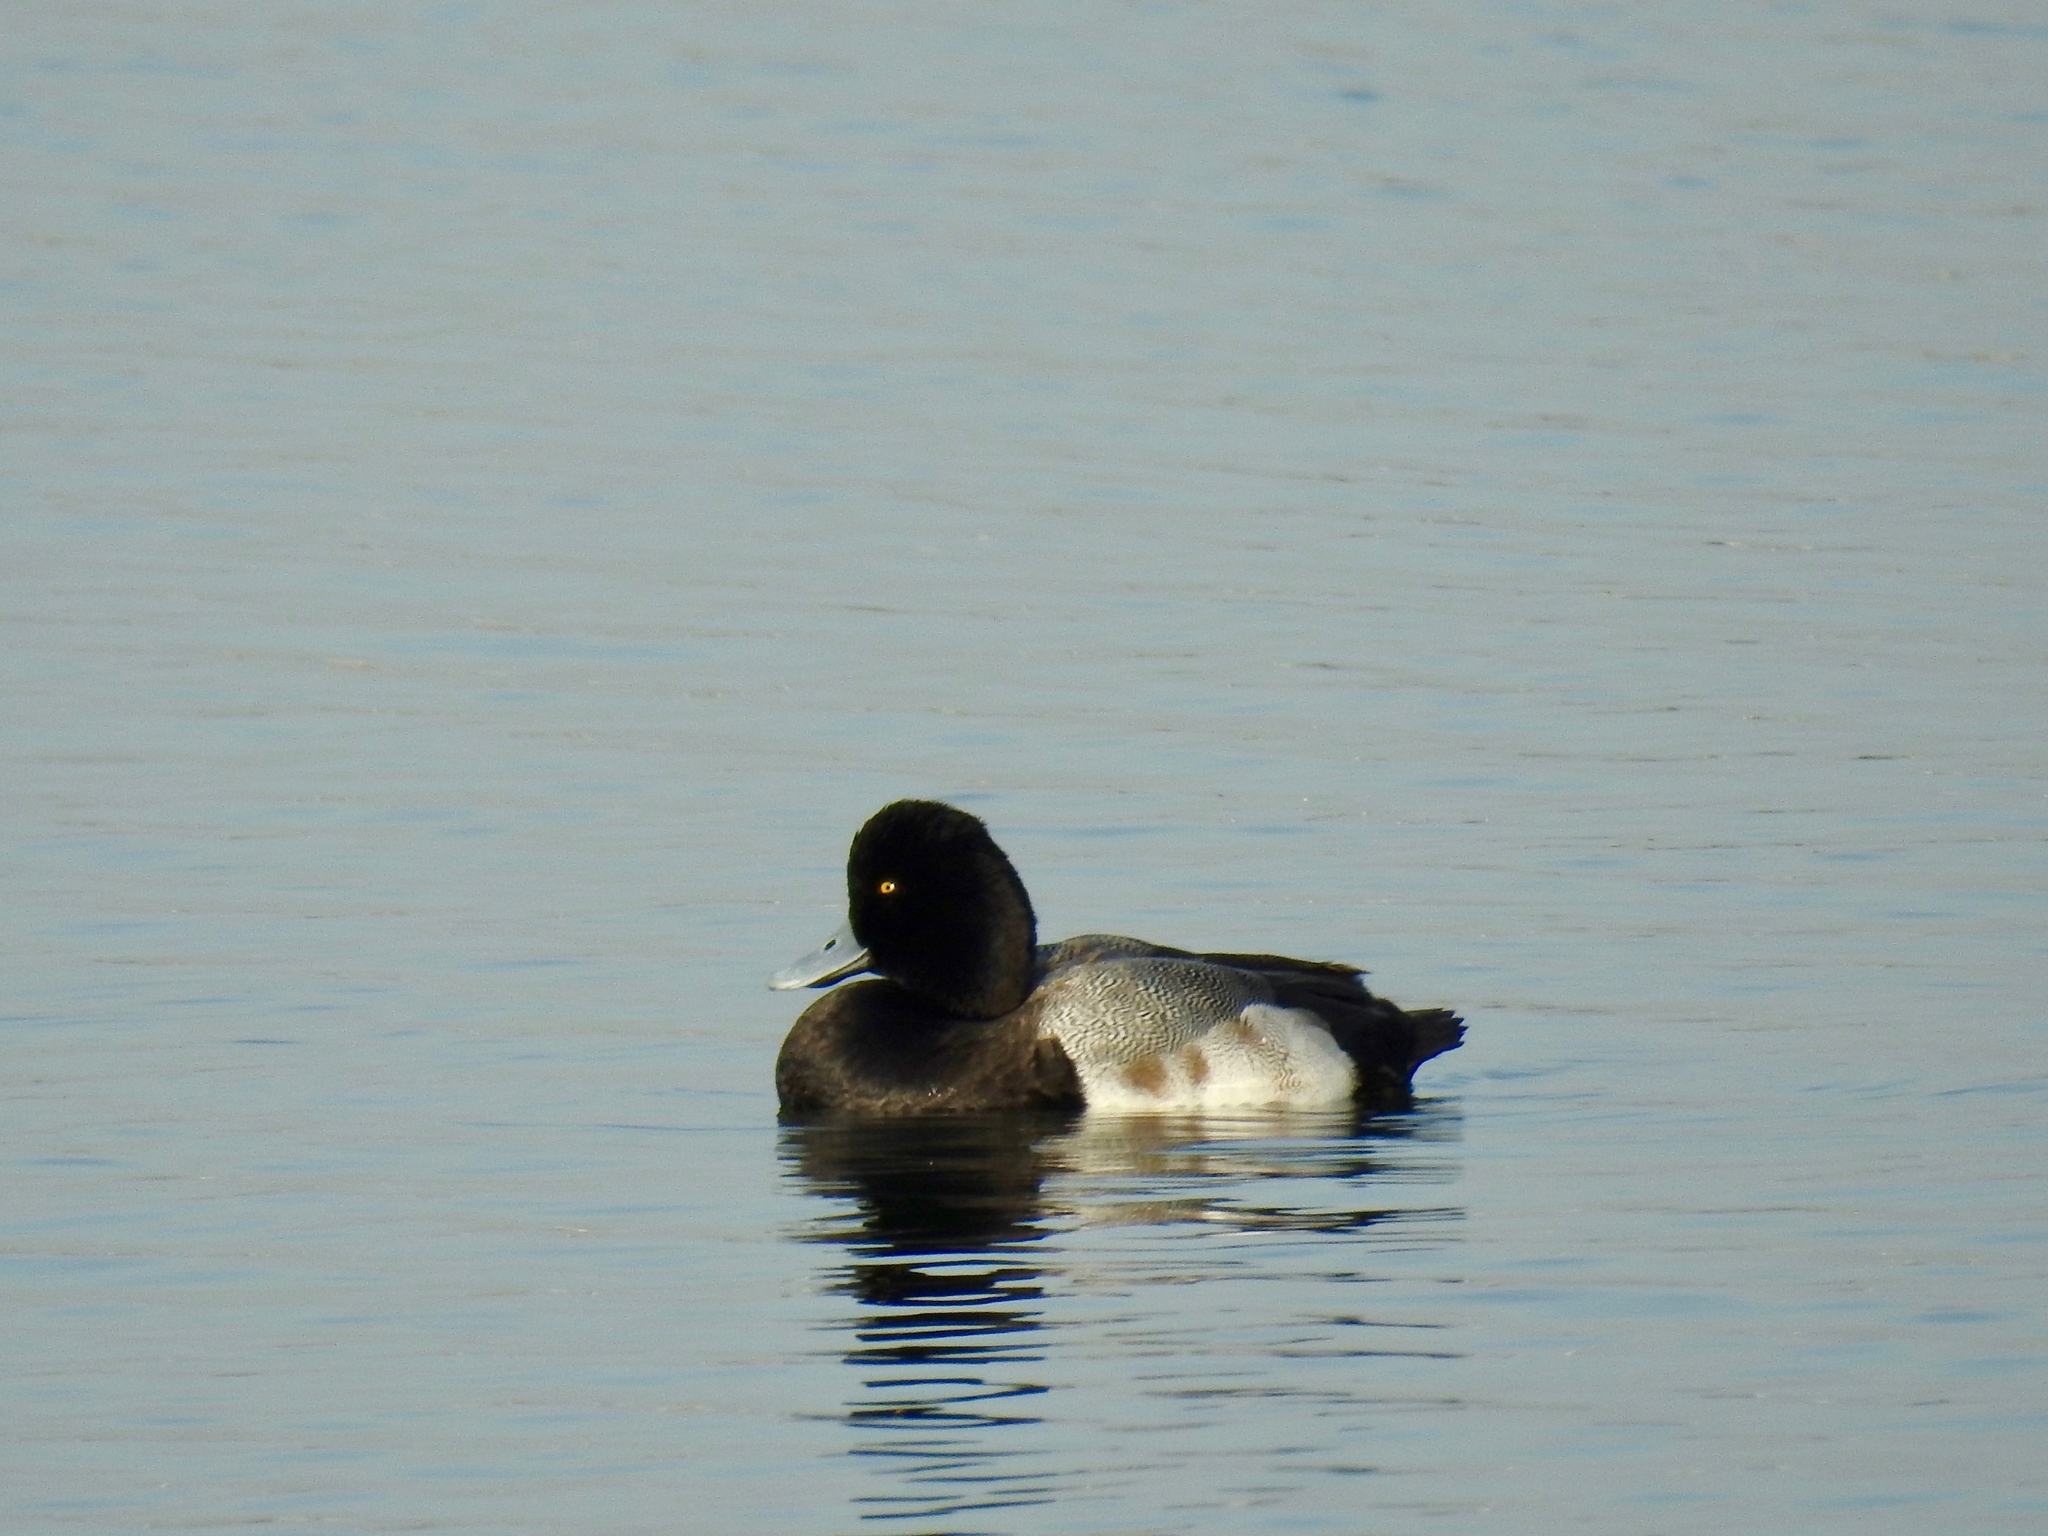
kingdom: Animalia
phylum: Chordata
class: Aves
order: Anseriformes
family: Anatidae
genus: Aythya
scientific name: Aythya affinis
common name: Lesser scaup
